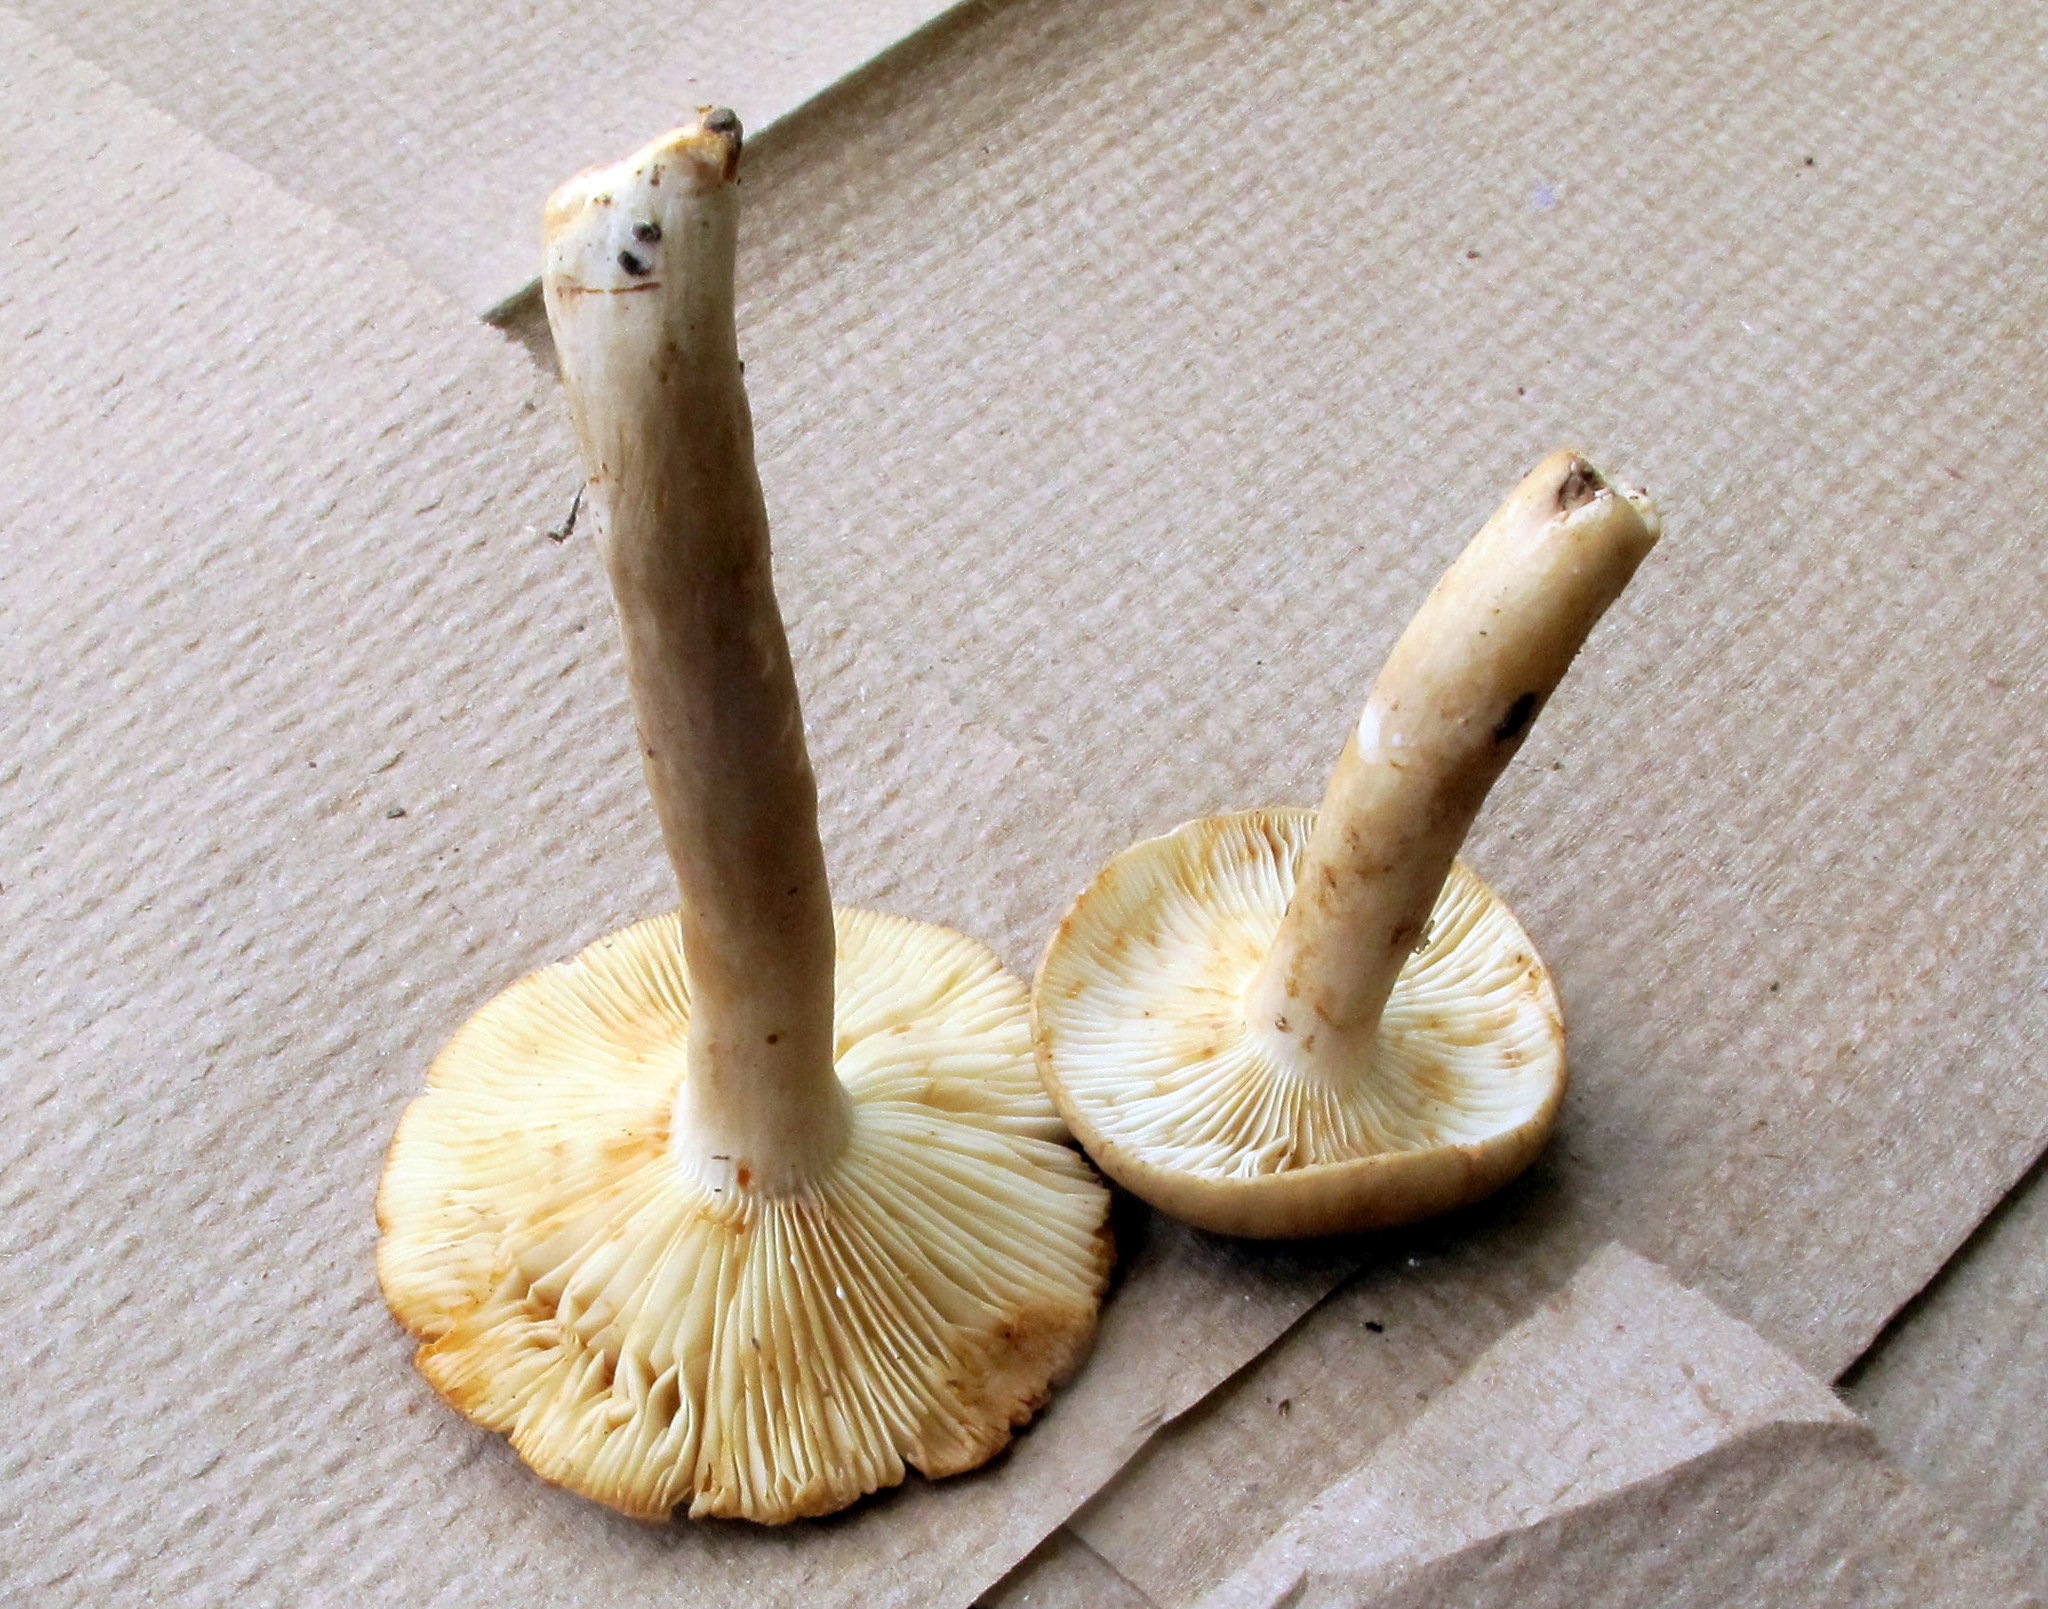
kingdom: Fungi
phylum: Basidiomycota
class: Agaricomycetes
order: Russulales
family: Russulaceae
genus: Lactarius
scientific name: Lactarius subvernalis
